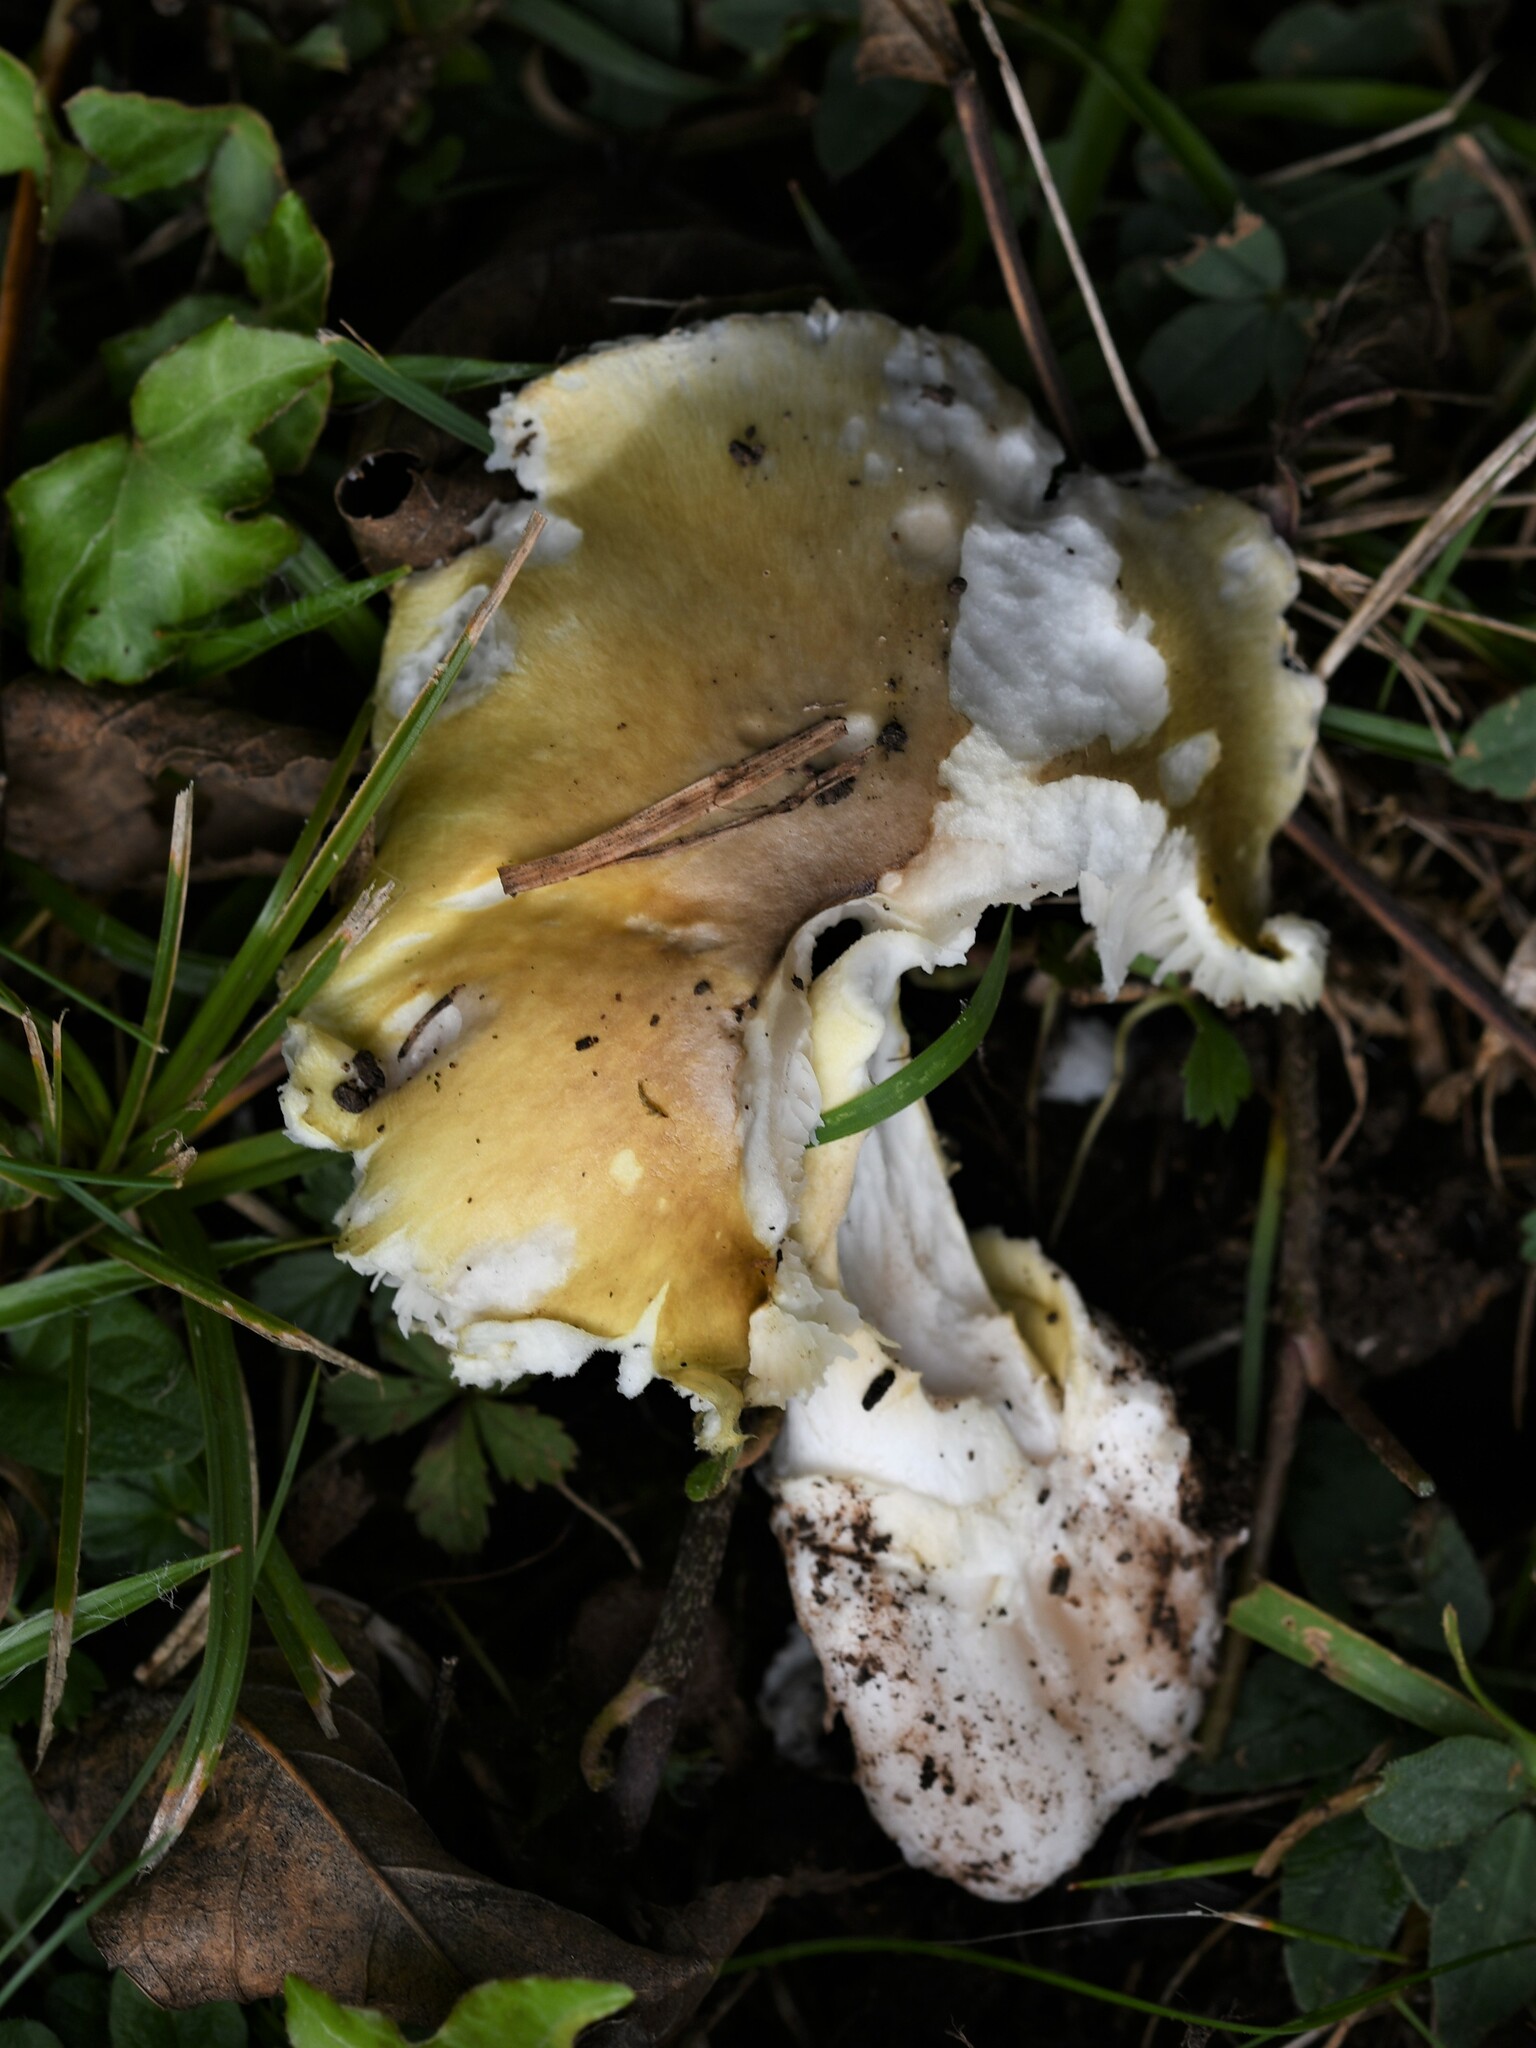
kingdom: Fungi
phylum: Basidiomycota
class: Agaricomycetes
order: Agaricales
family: Amanitaceae
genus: Amanita
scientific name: Amanita phalloides
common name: Death cap
